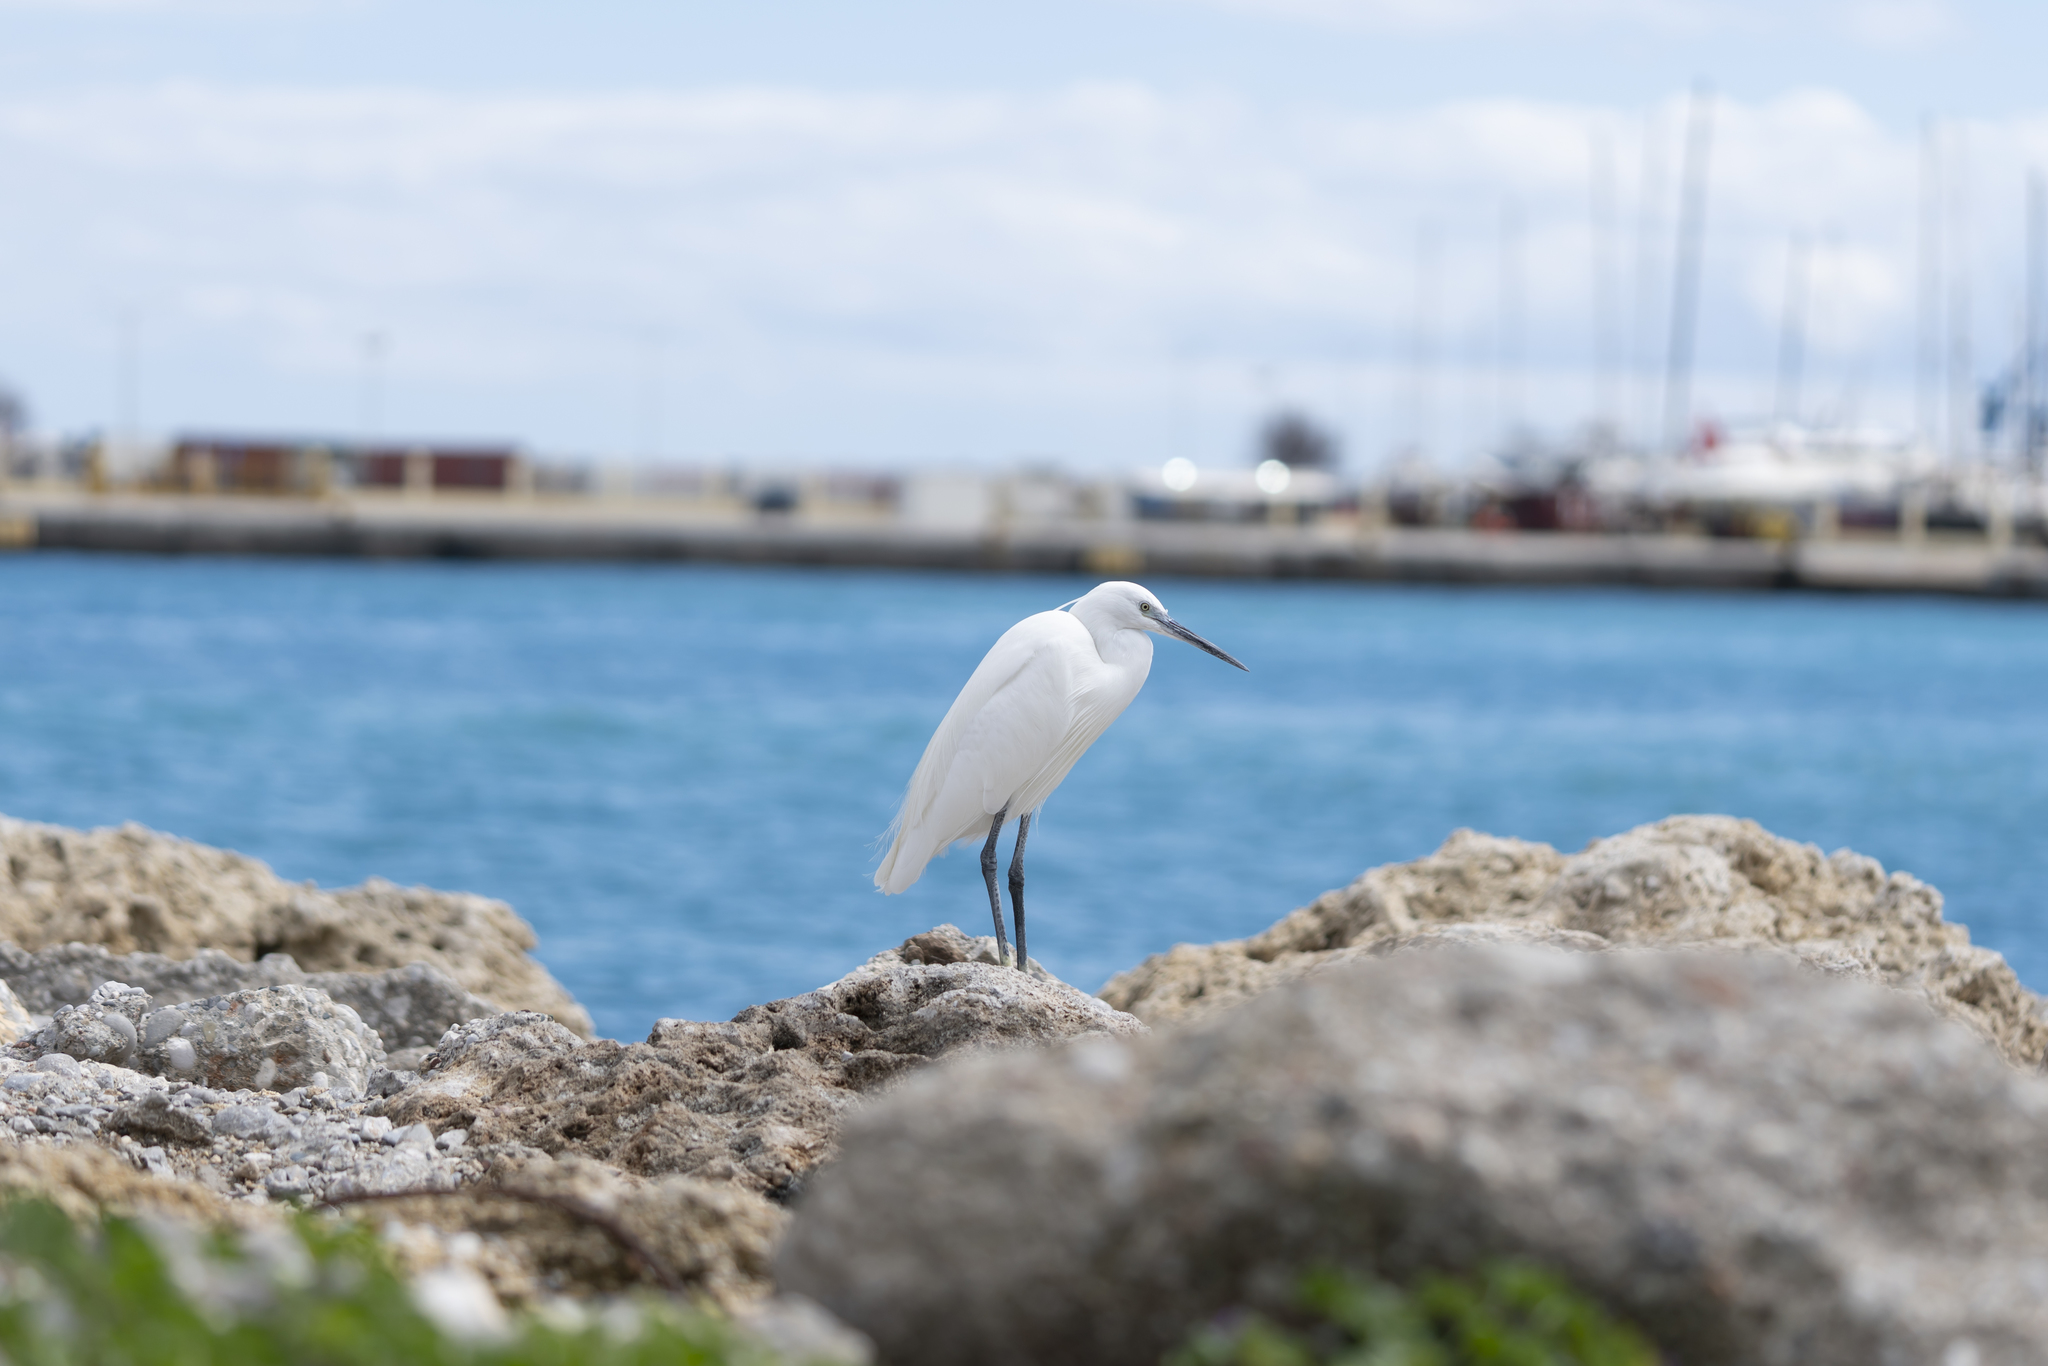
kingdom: Animalia
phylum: Chordata
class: Aves
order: Pelecaniformes
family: Ardeidae
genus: Egretta
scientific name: Egretta garzetta
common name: Little egret
